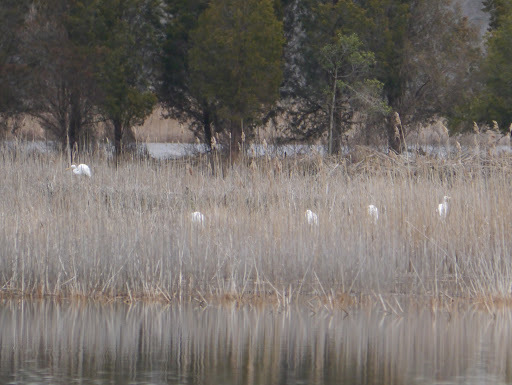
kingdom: Animalia
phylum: Chordata
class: Aves
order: Pelecaniformes
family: Ardeidae
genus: Ardea
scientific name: Ardea alba
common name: Great egret
